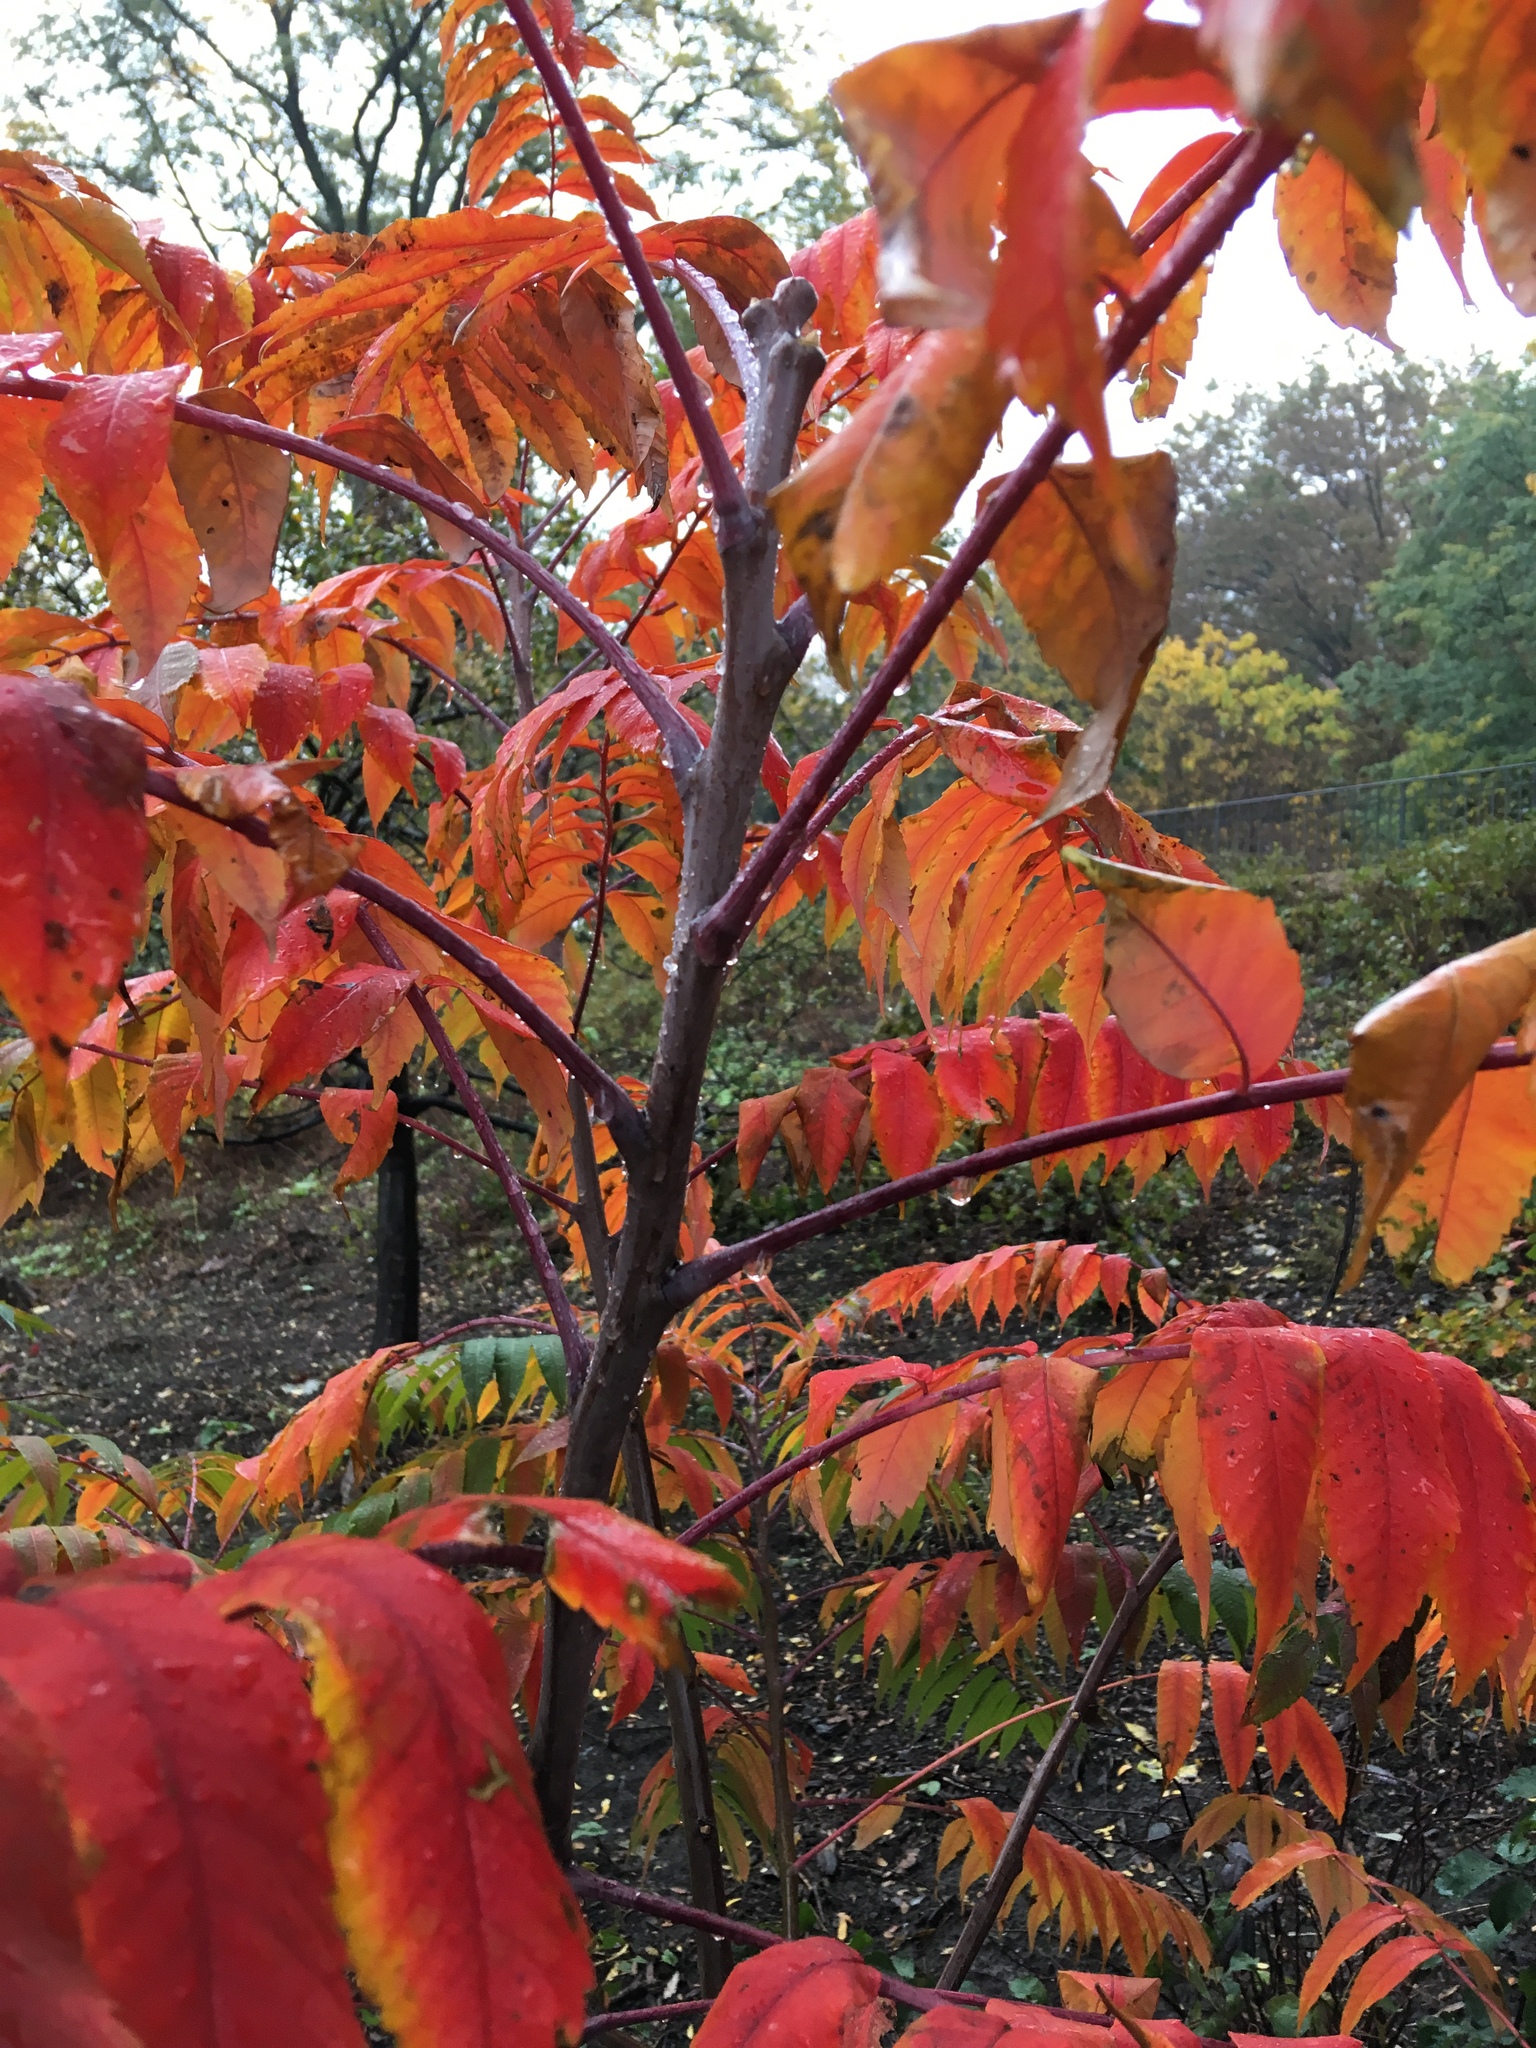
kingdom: Plantae
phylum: Tracheophyta
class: Magnoliopsida
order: Sapindales
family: Anacardiaceae
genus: Rhus
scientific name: Rhus glabra
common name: Scarlet sumac
